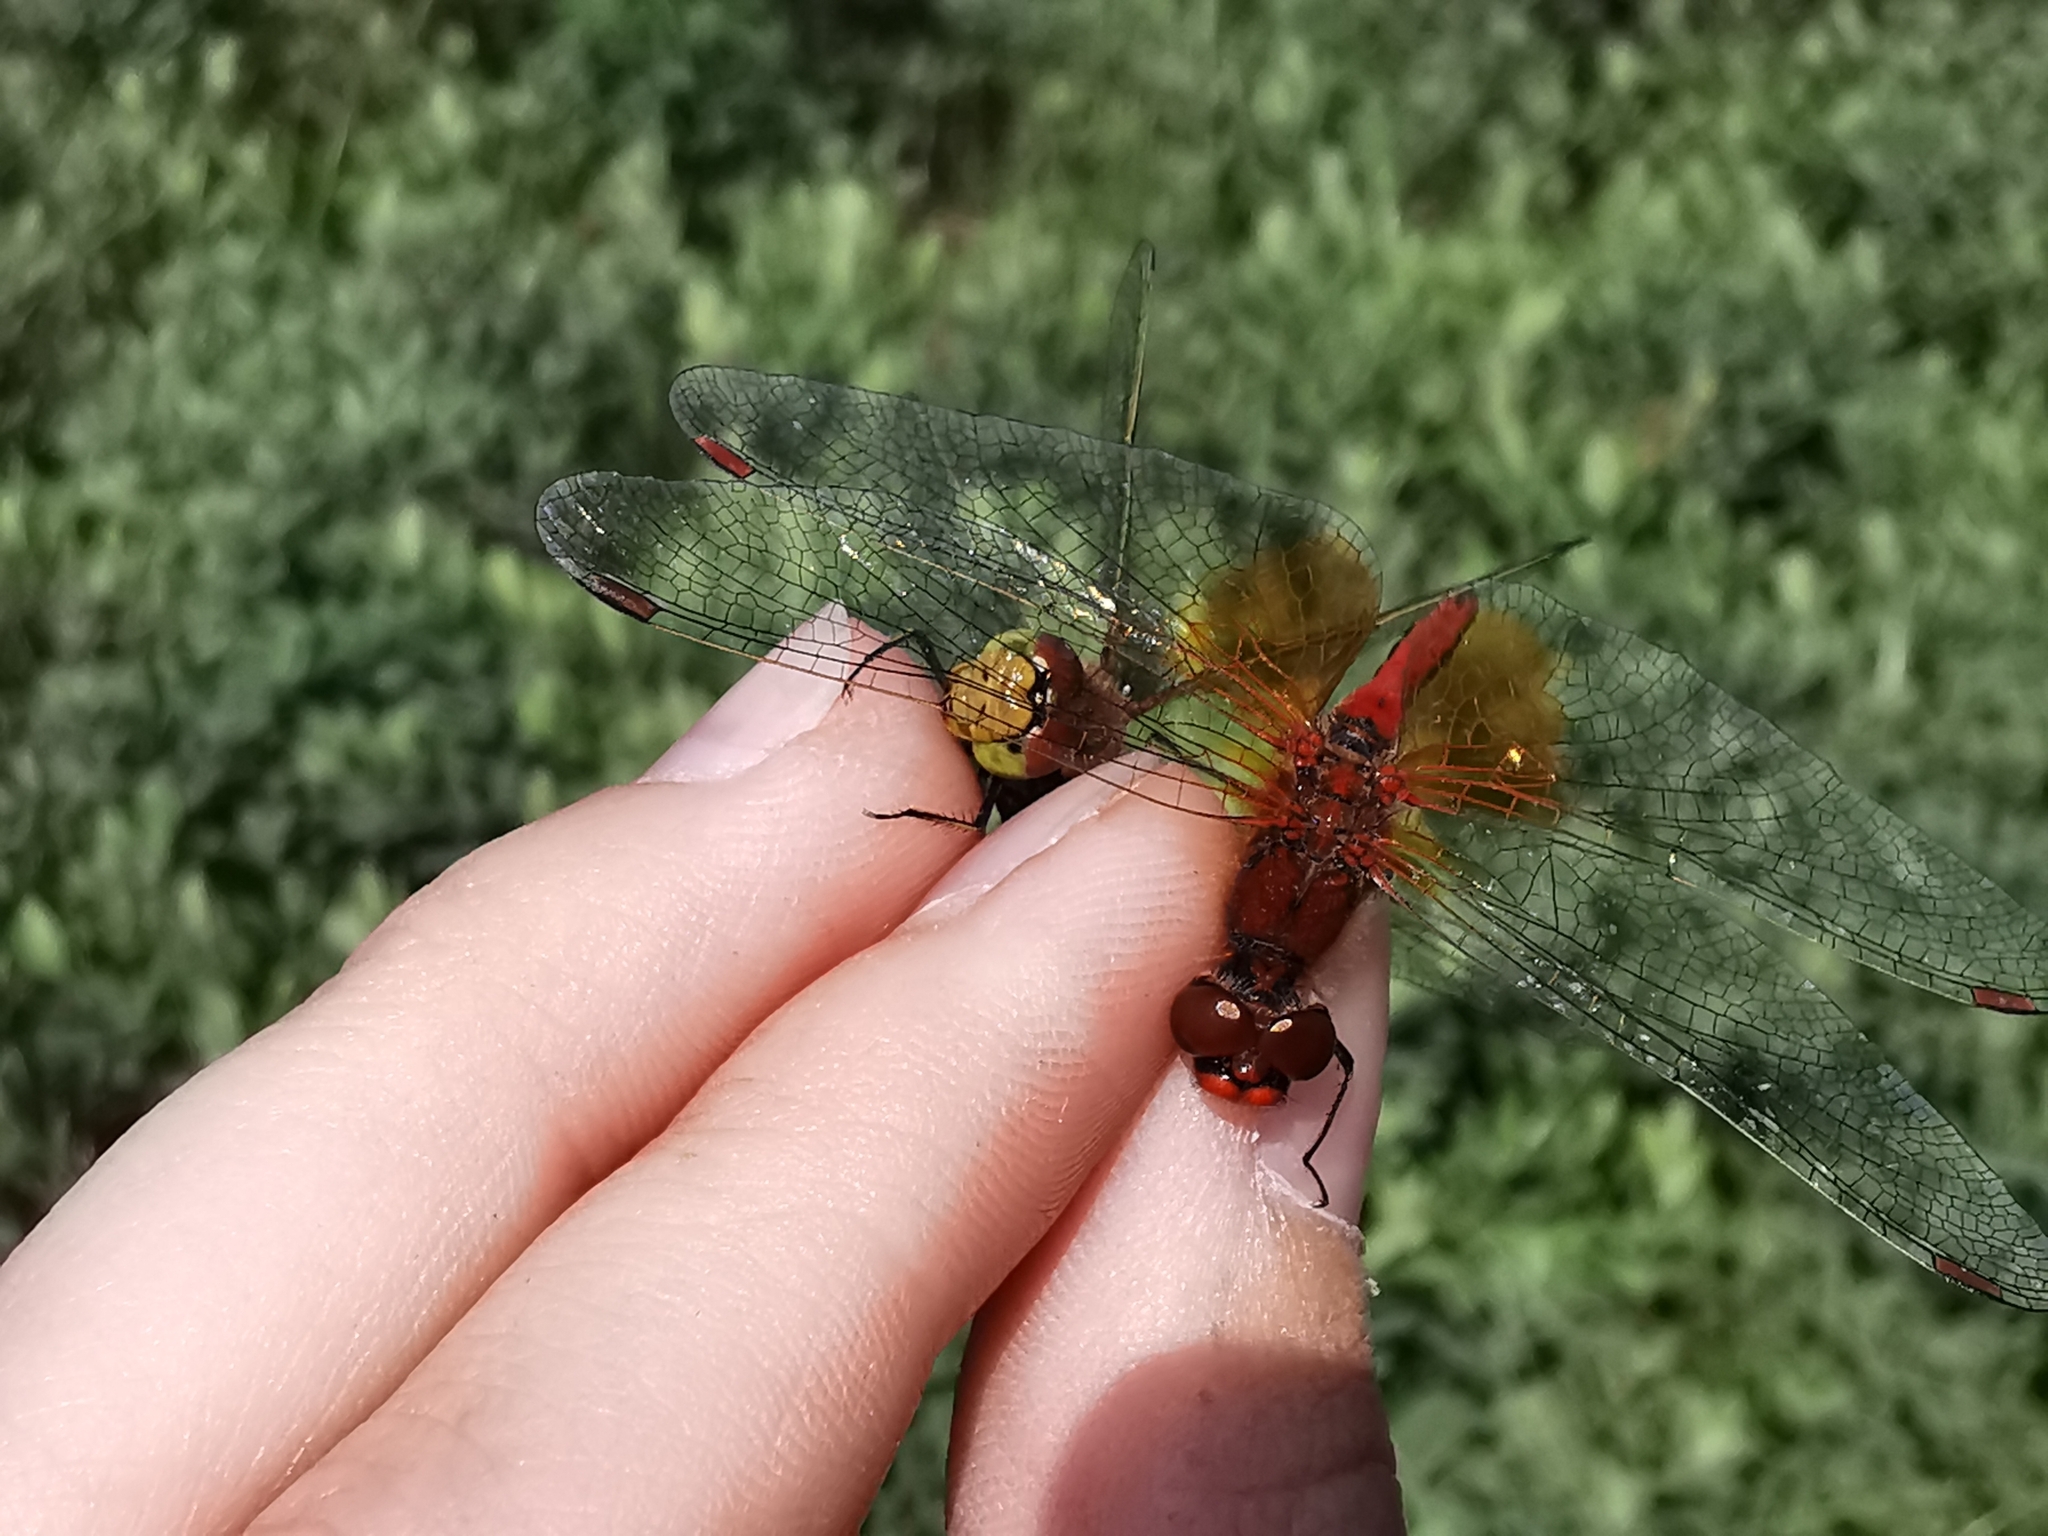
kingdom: Animalia
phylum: Arthropoda
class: Insecta
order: Odonata
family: Libellulidae
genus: Sympetrum
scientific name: Sympetrum flaveolum
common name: Yellow-winged darter
